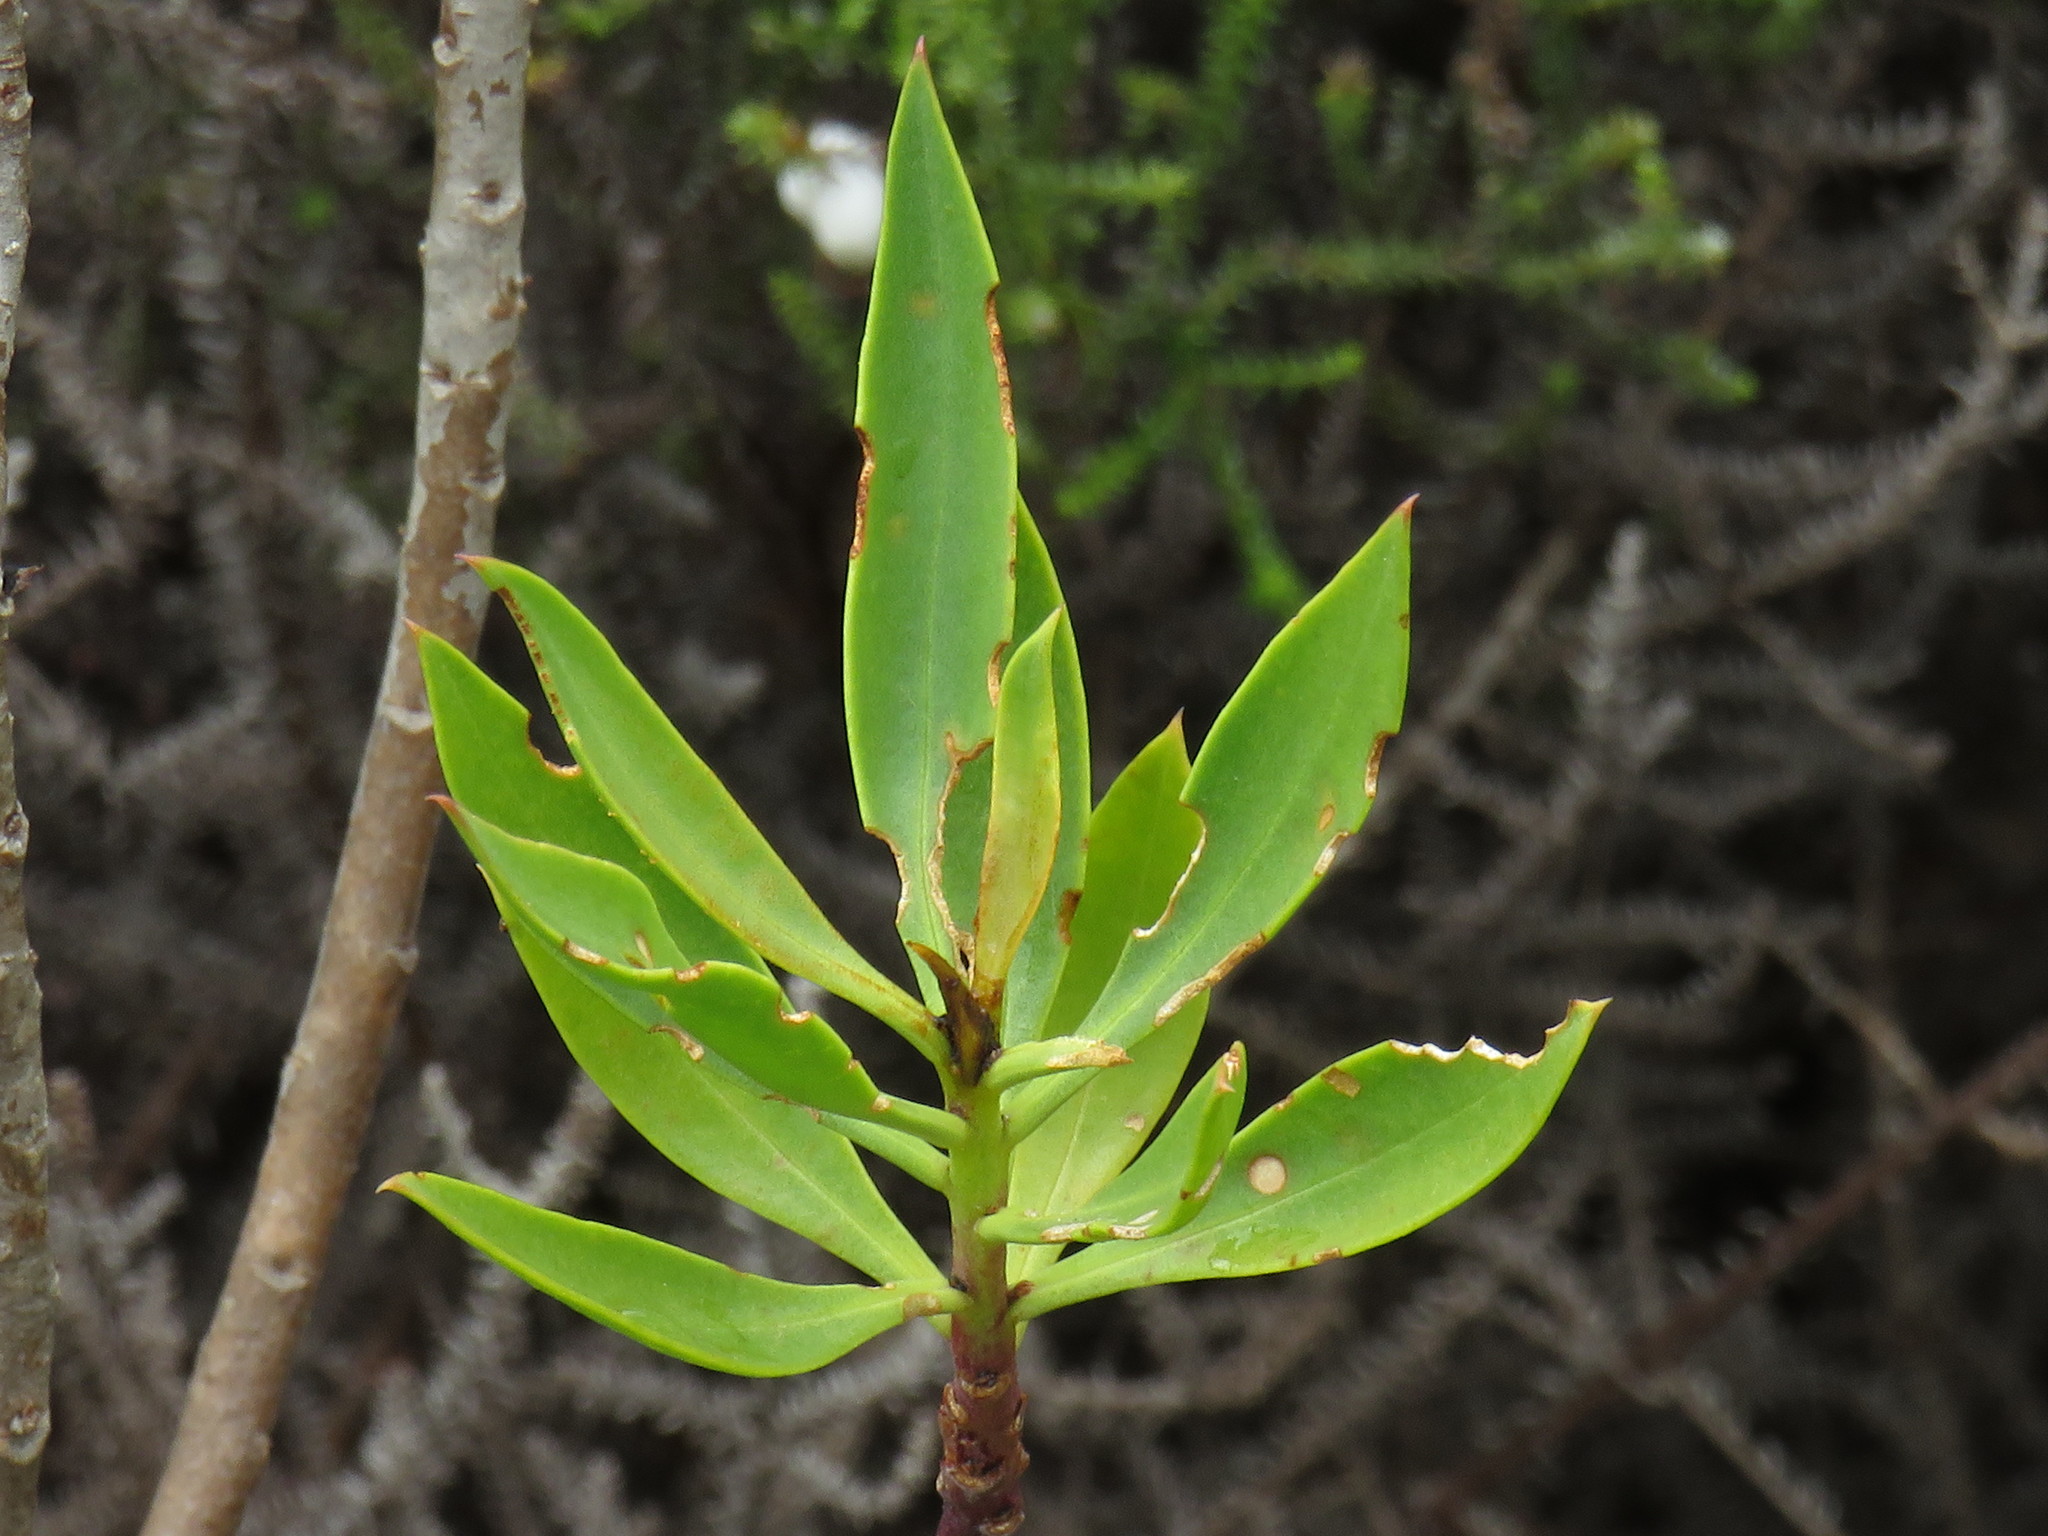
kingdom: Plantae
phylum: Tracheophyta
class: Magnoliopsida
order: Lamiales
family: Scrophulariaceae
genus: Myoporum
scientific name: Myoporum montanum
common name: Waterbush
